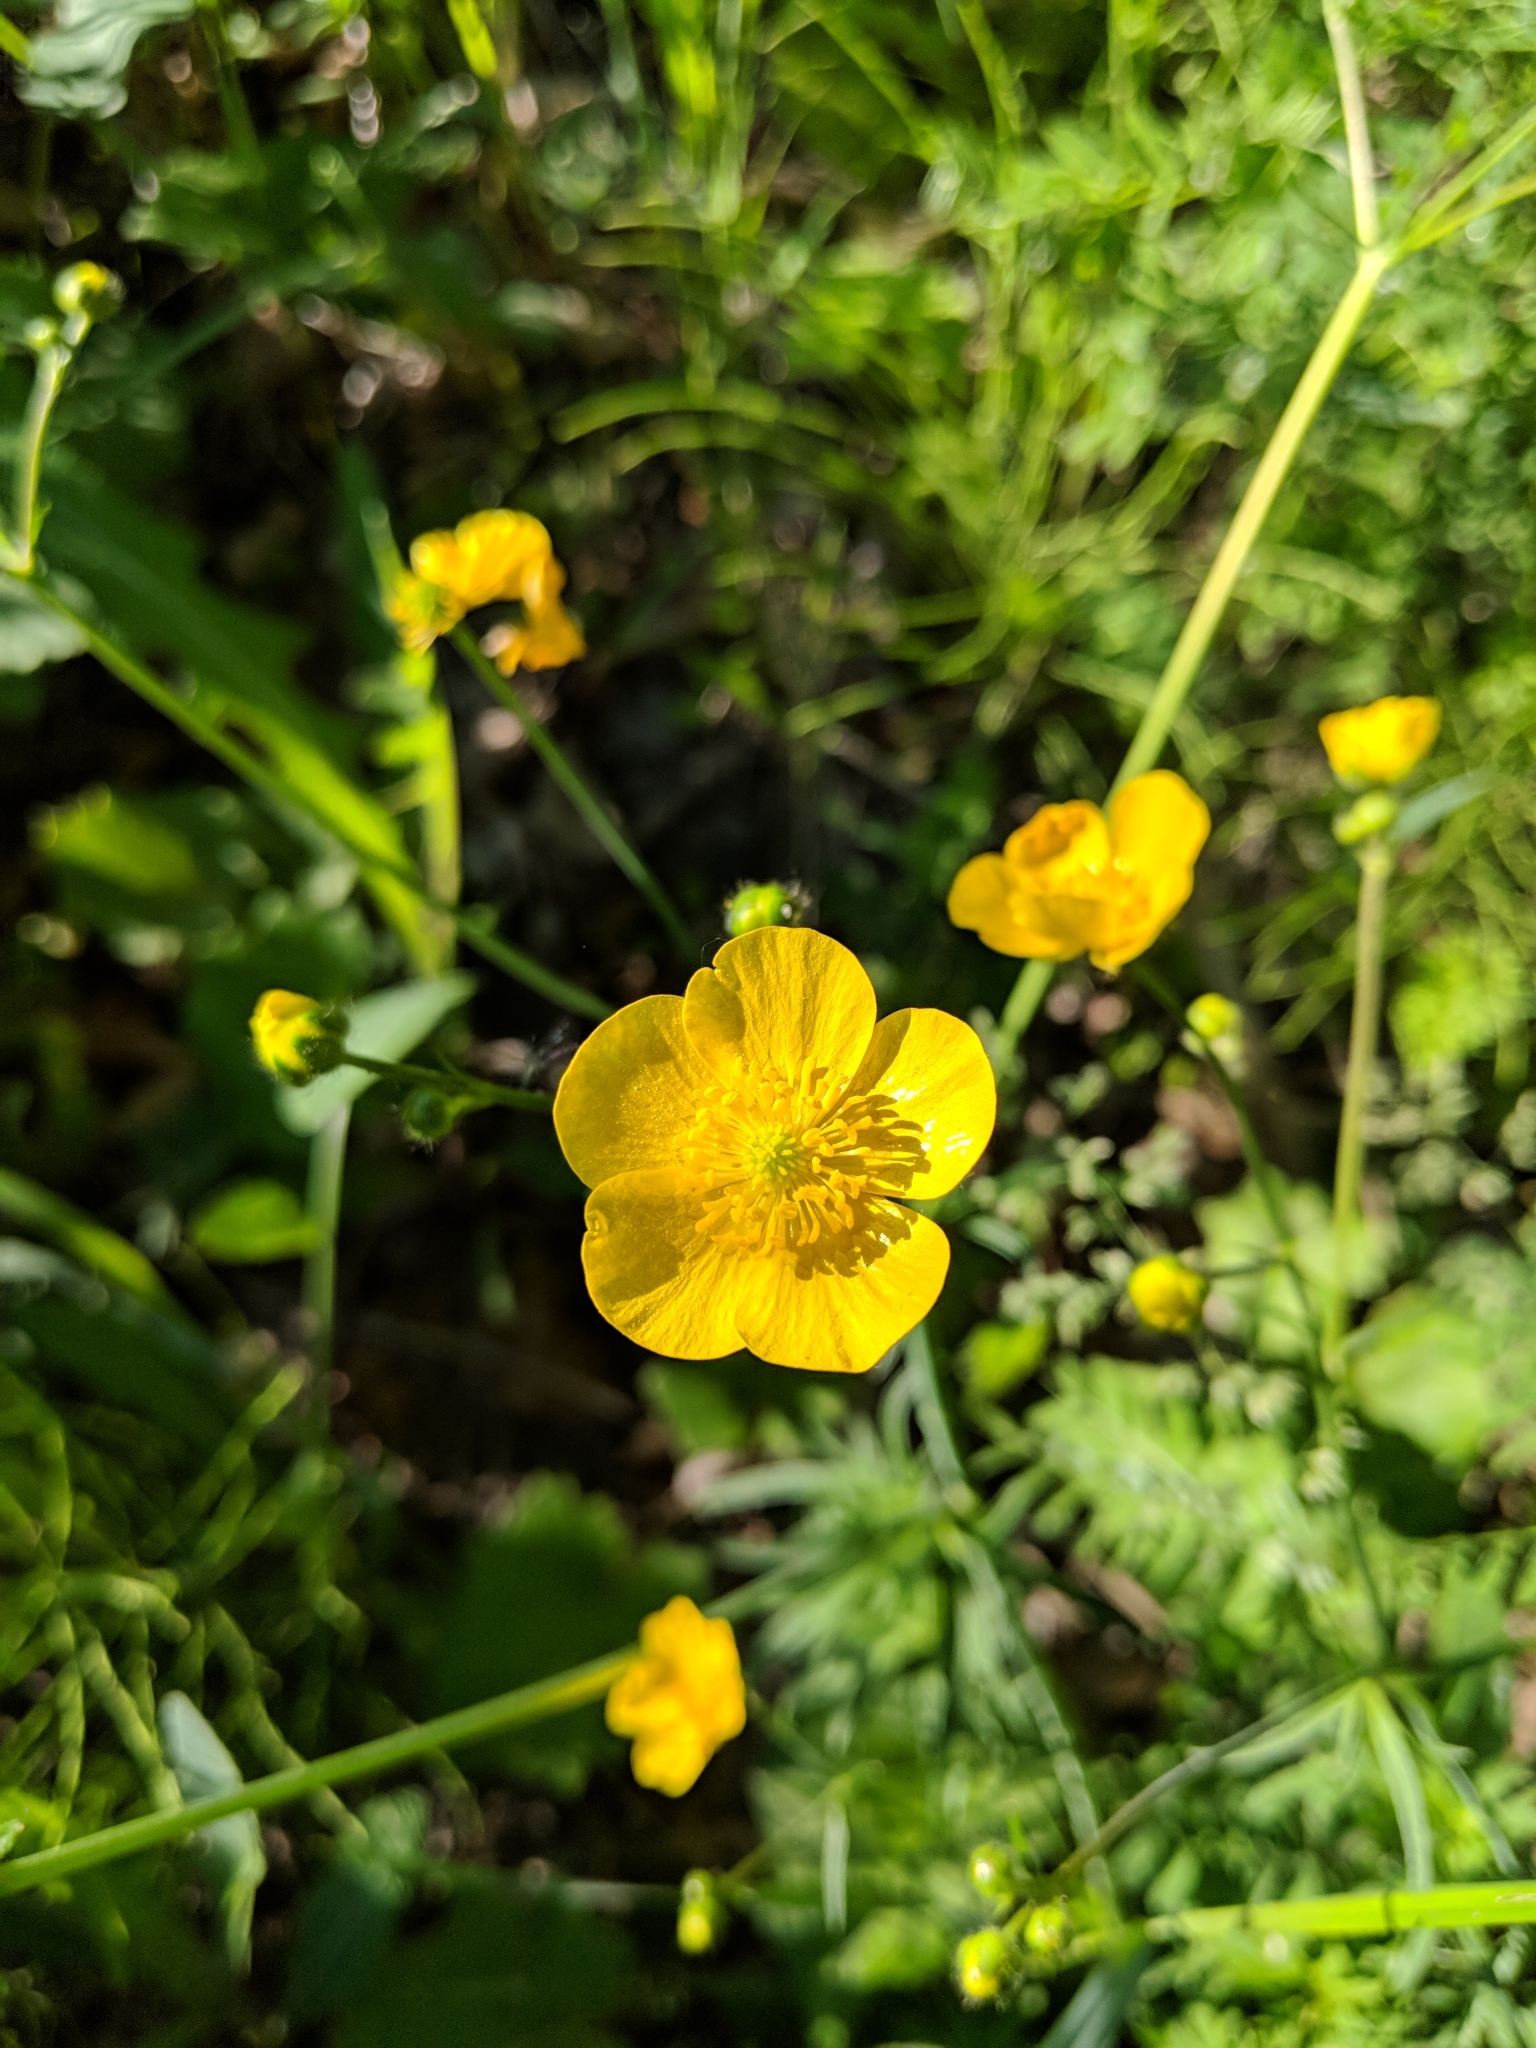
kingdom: Plantae
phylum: Tracheophyta
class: Magnoliopsida
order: Ranunculales
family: Ranunculaceae
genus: Ranunculus
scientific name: Ranunculus acris
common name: Meadow buttercup
